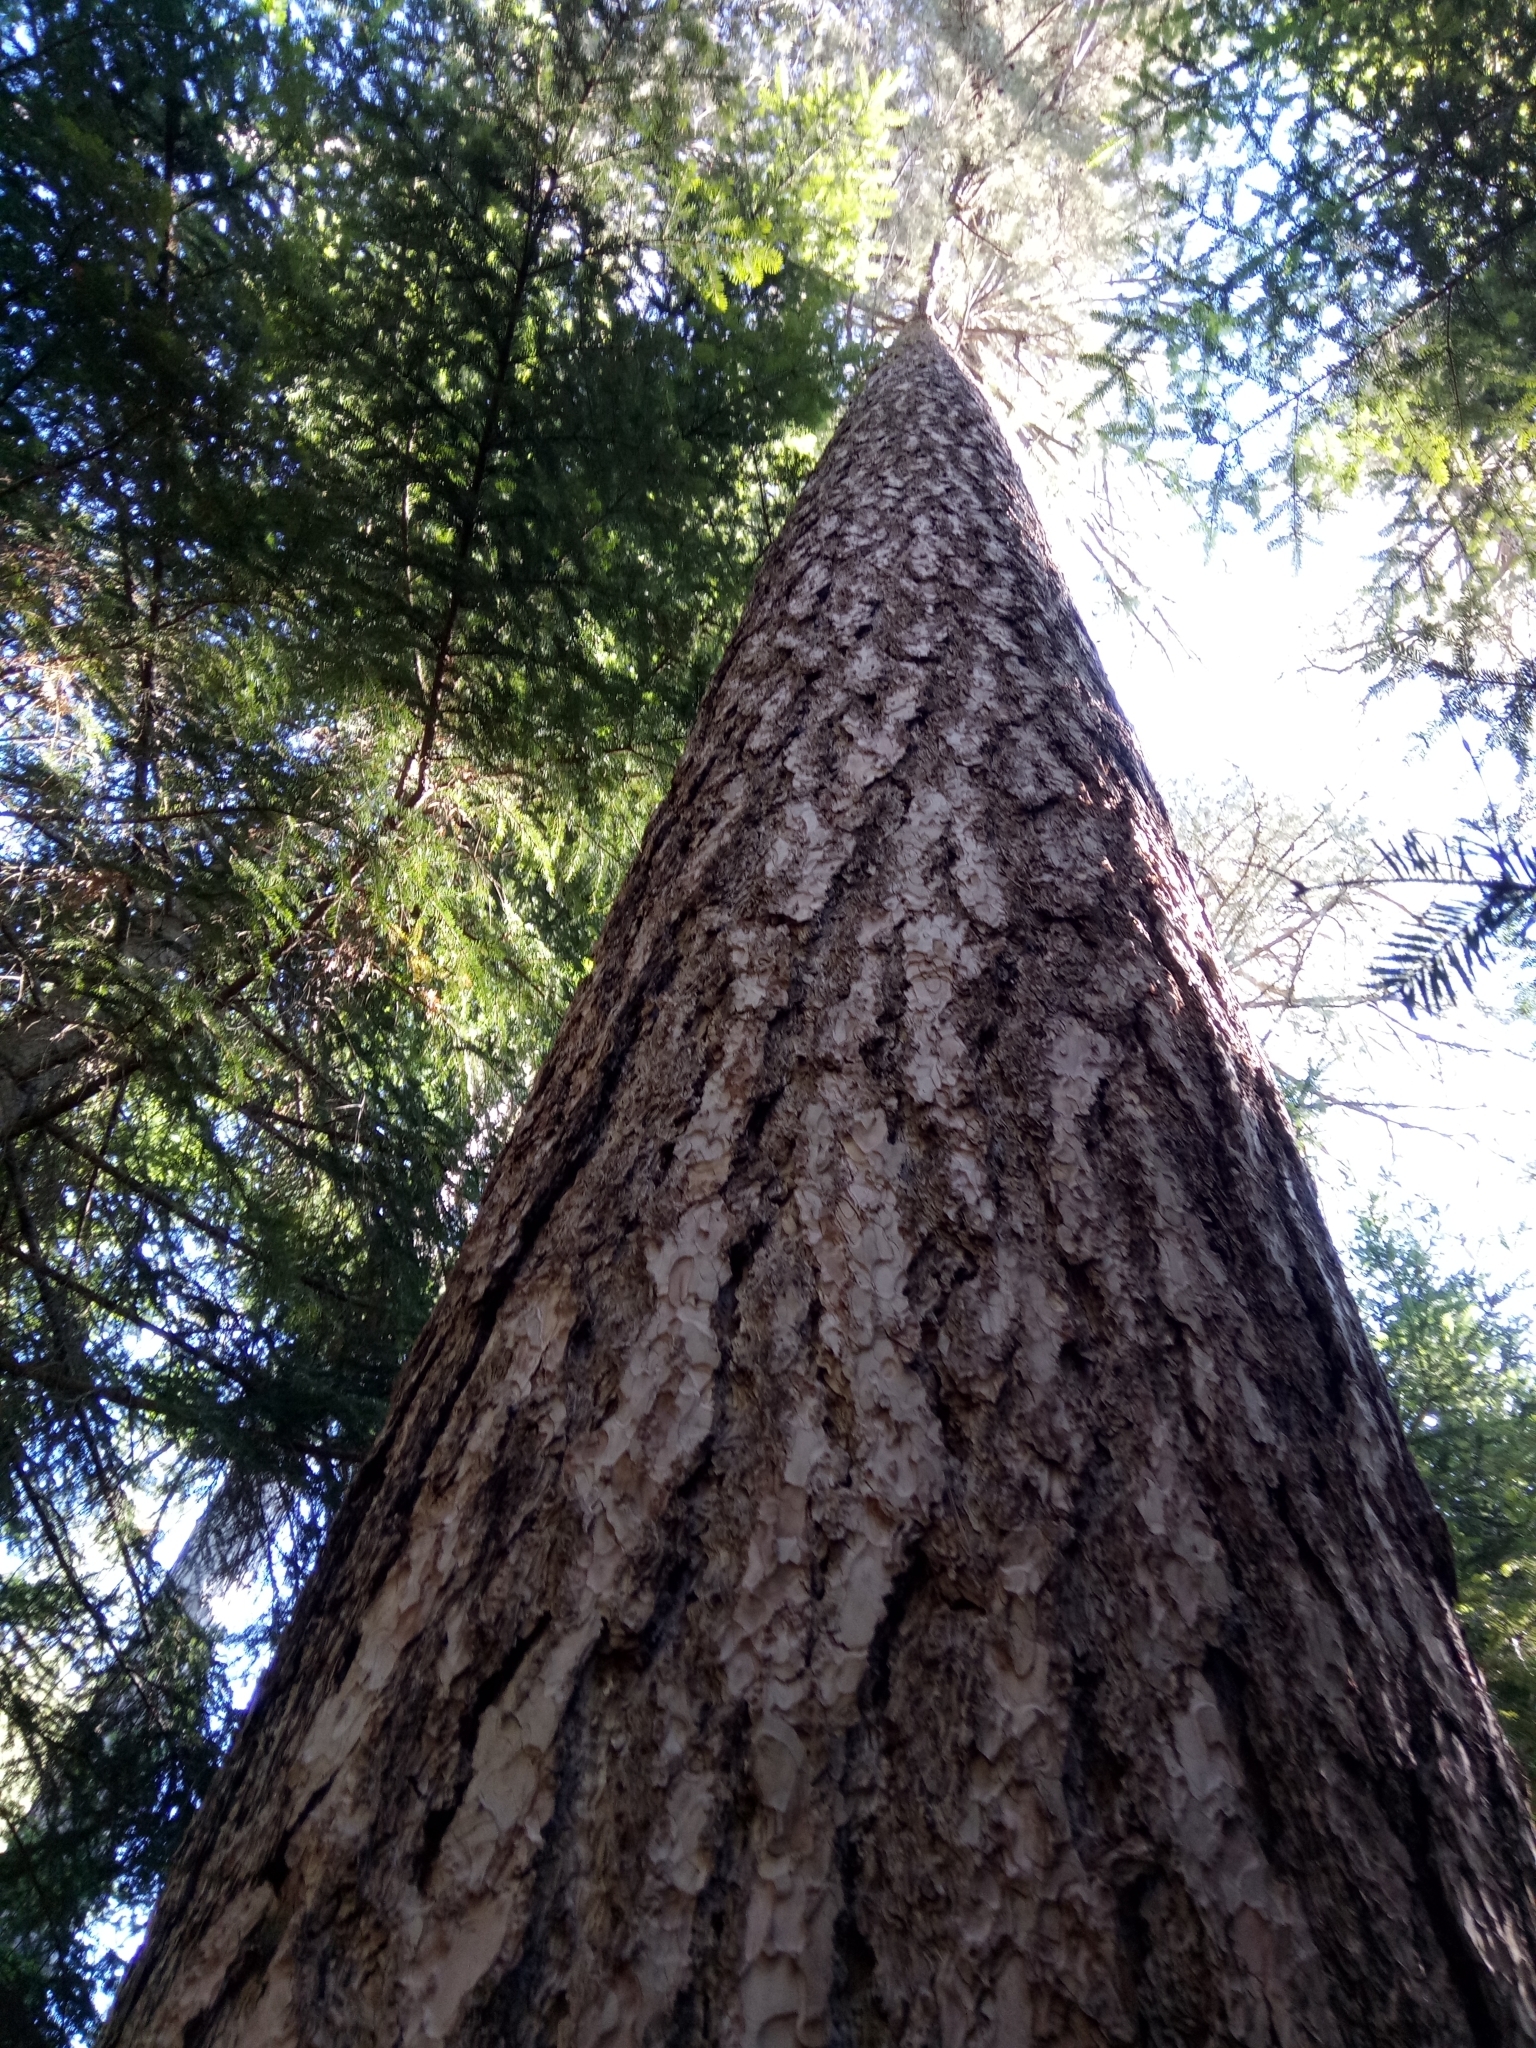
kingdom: Plantae
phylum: Tracheophyta
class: Pinopsida
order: Pinales
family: Pinaceae
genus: Pinus
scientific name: Pinus nigra
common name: Austrian pine
